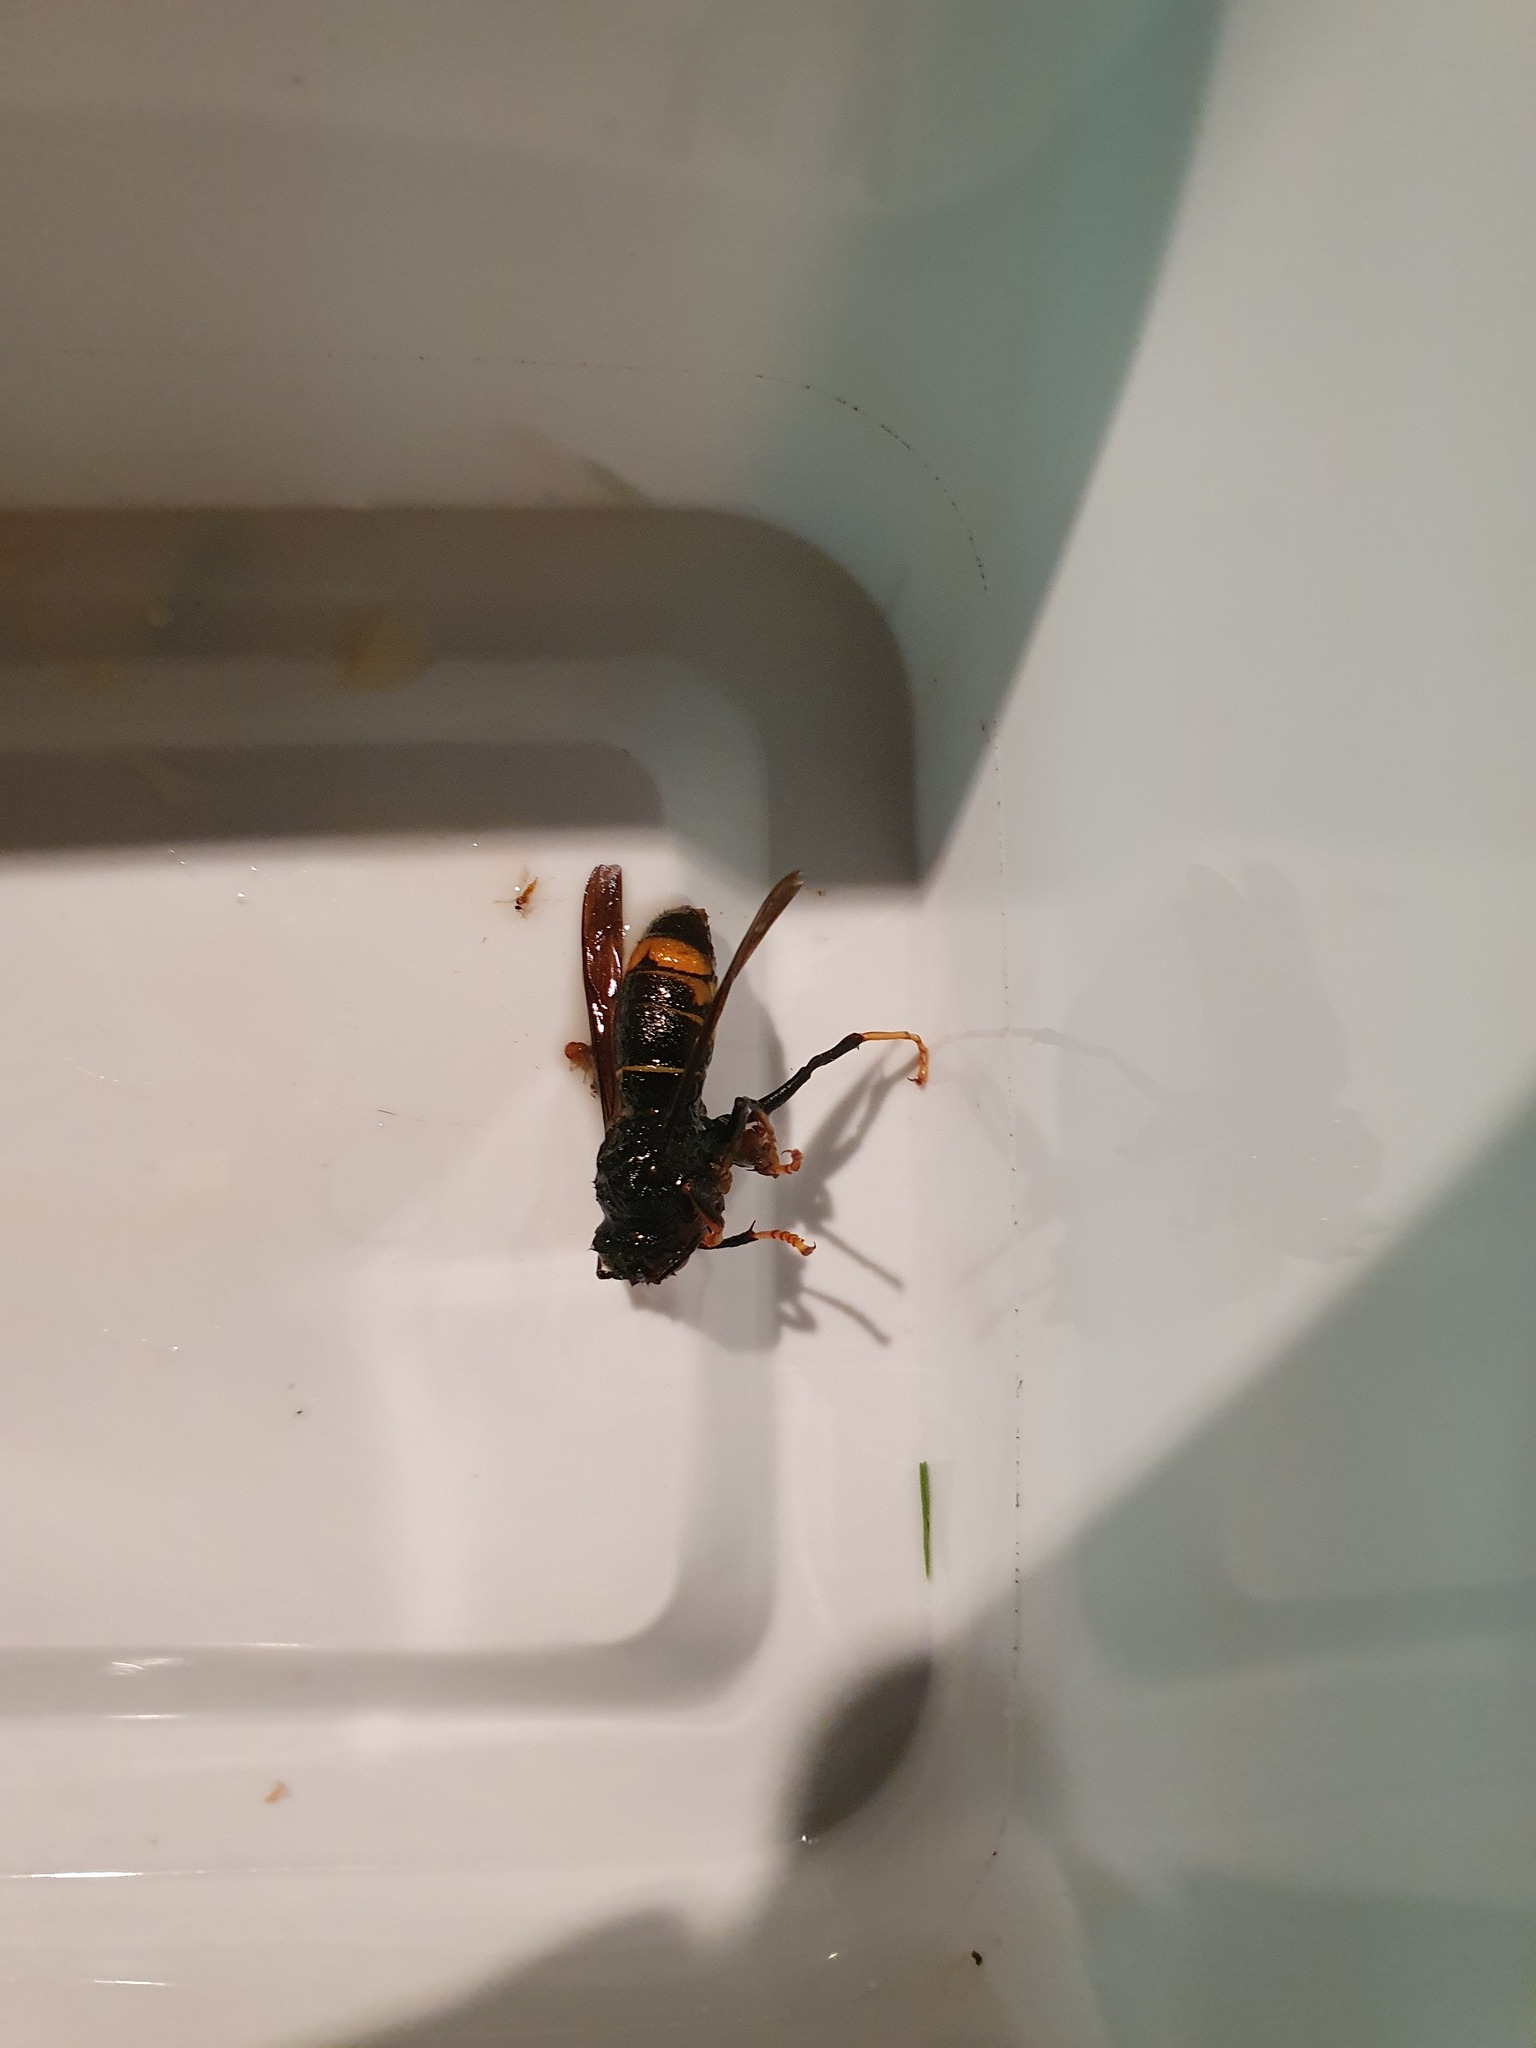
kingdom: Animalia
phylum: Arthropoda
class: Insecta
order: Hymenoptera
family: Vespidae
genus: Vespa
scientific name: Vespa velutina
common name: Asian hornet
